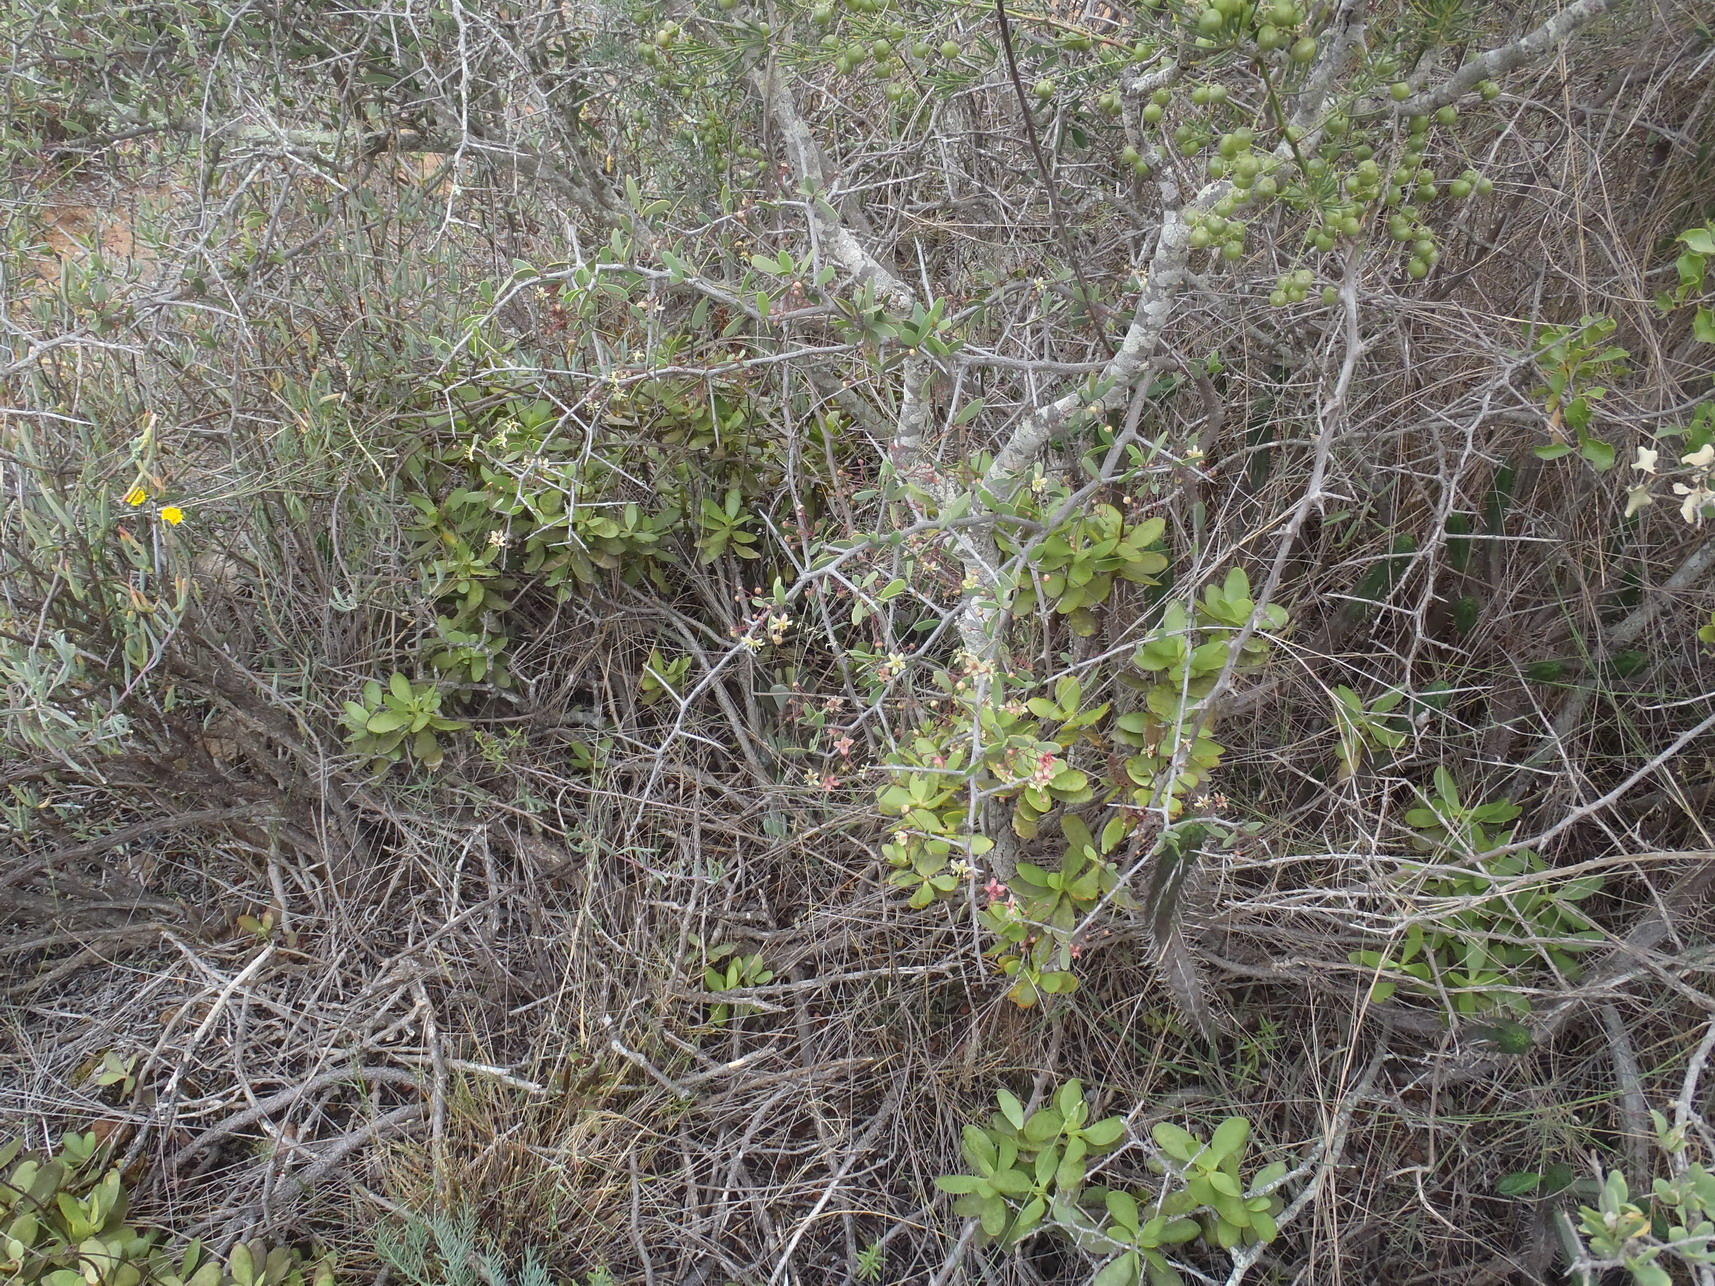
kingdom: Plantae
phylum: Tracheophyta
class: Magnoliopsida
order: Celastrales
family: Celastraceae
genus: Gloveria
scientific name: Gloveria integrifolia
